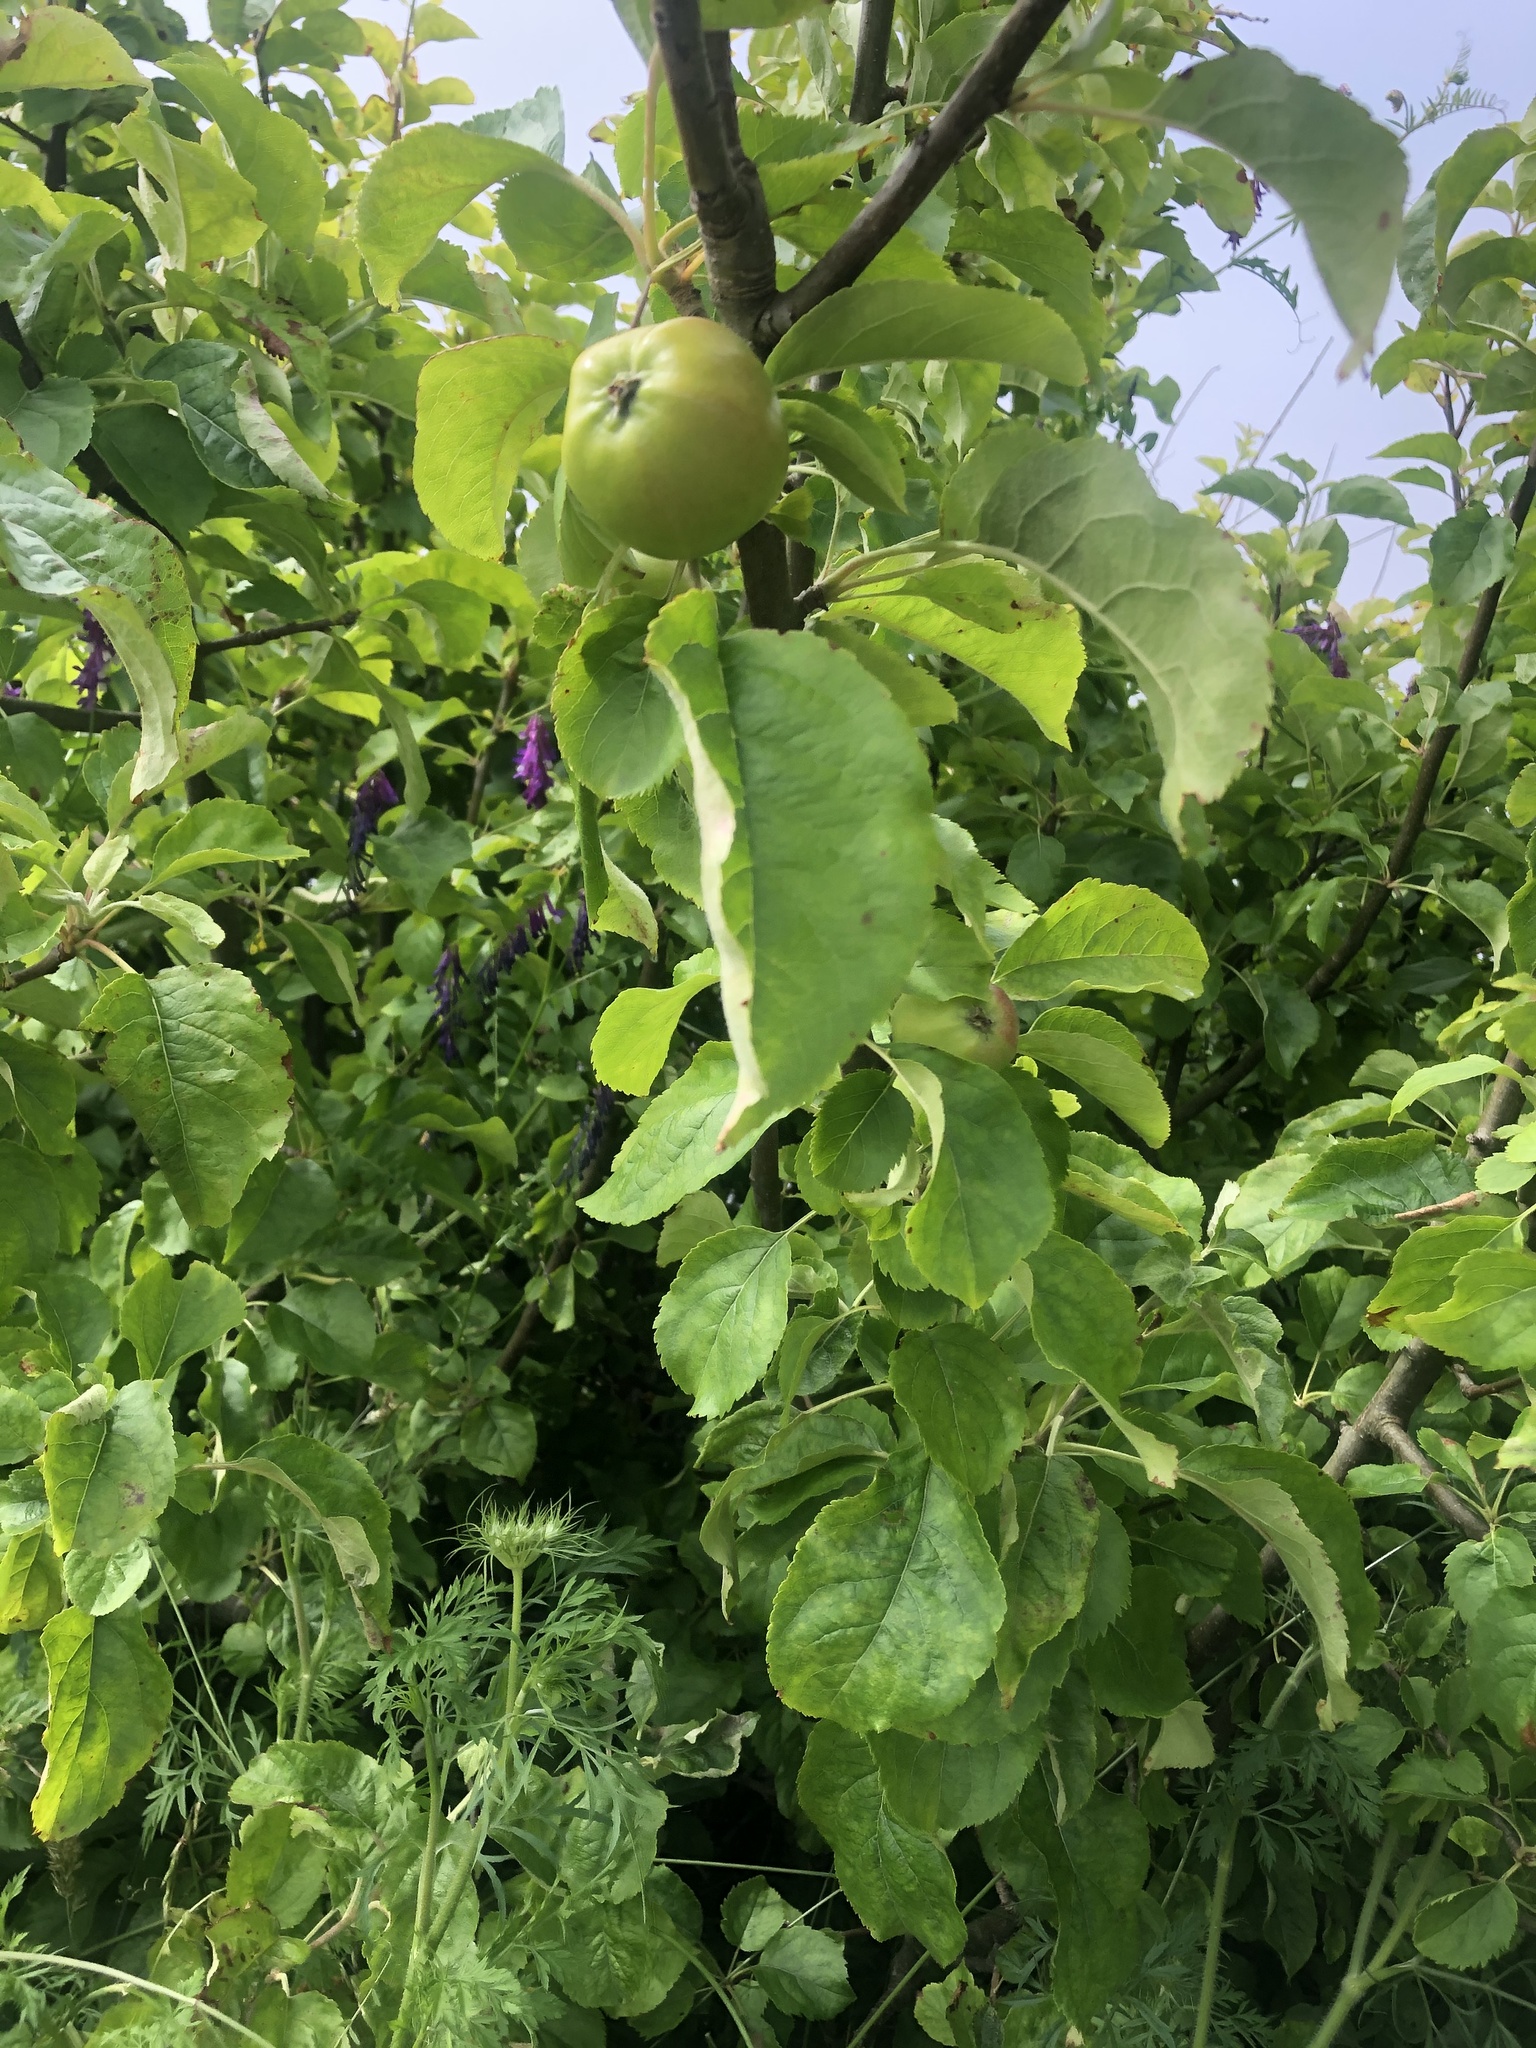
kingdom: Plantae
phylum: Tracheophyta
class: Magnoliopsida
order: Rosales
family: Rosaceae
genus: Malus
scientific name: Malus domestica
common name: Apple
